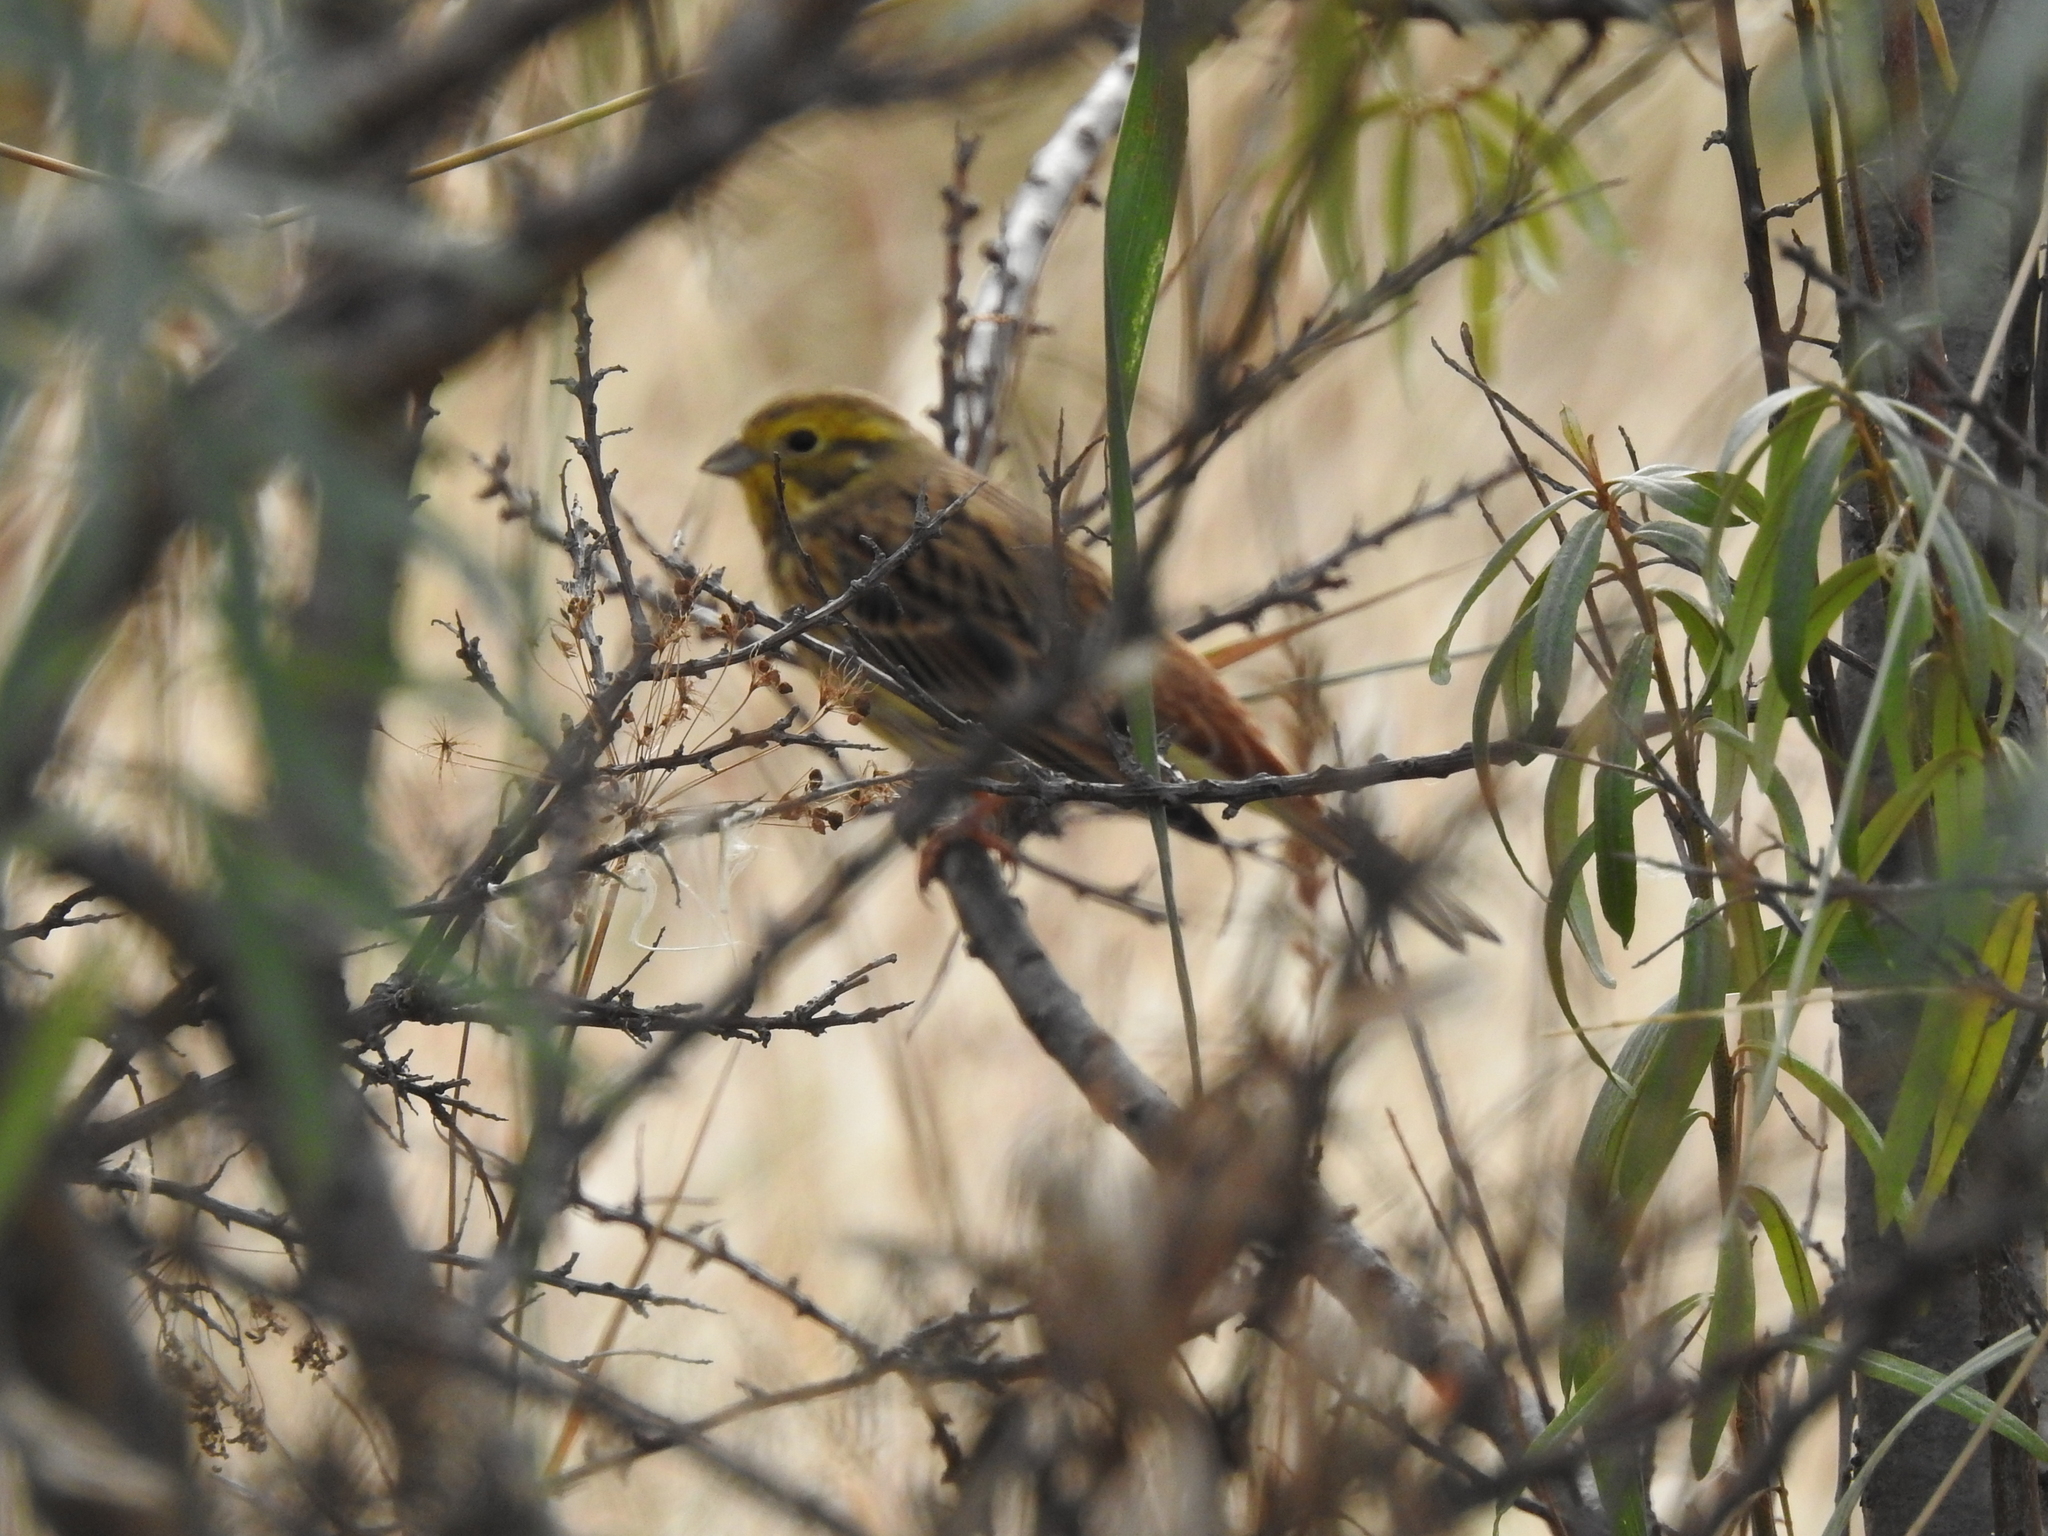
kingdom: Animalia
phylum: Chordata
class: Aves
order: Passeriformes
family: Emberizidae
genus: Emberiza
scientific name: Emberiza citrinella
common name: Yellowhammer
